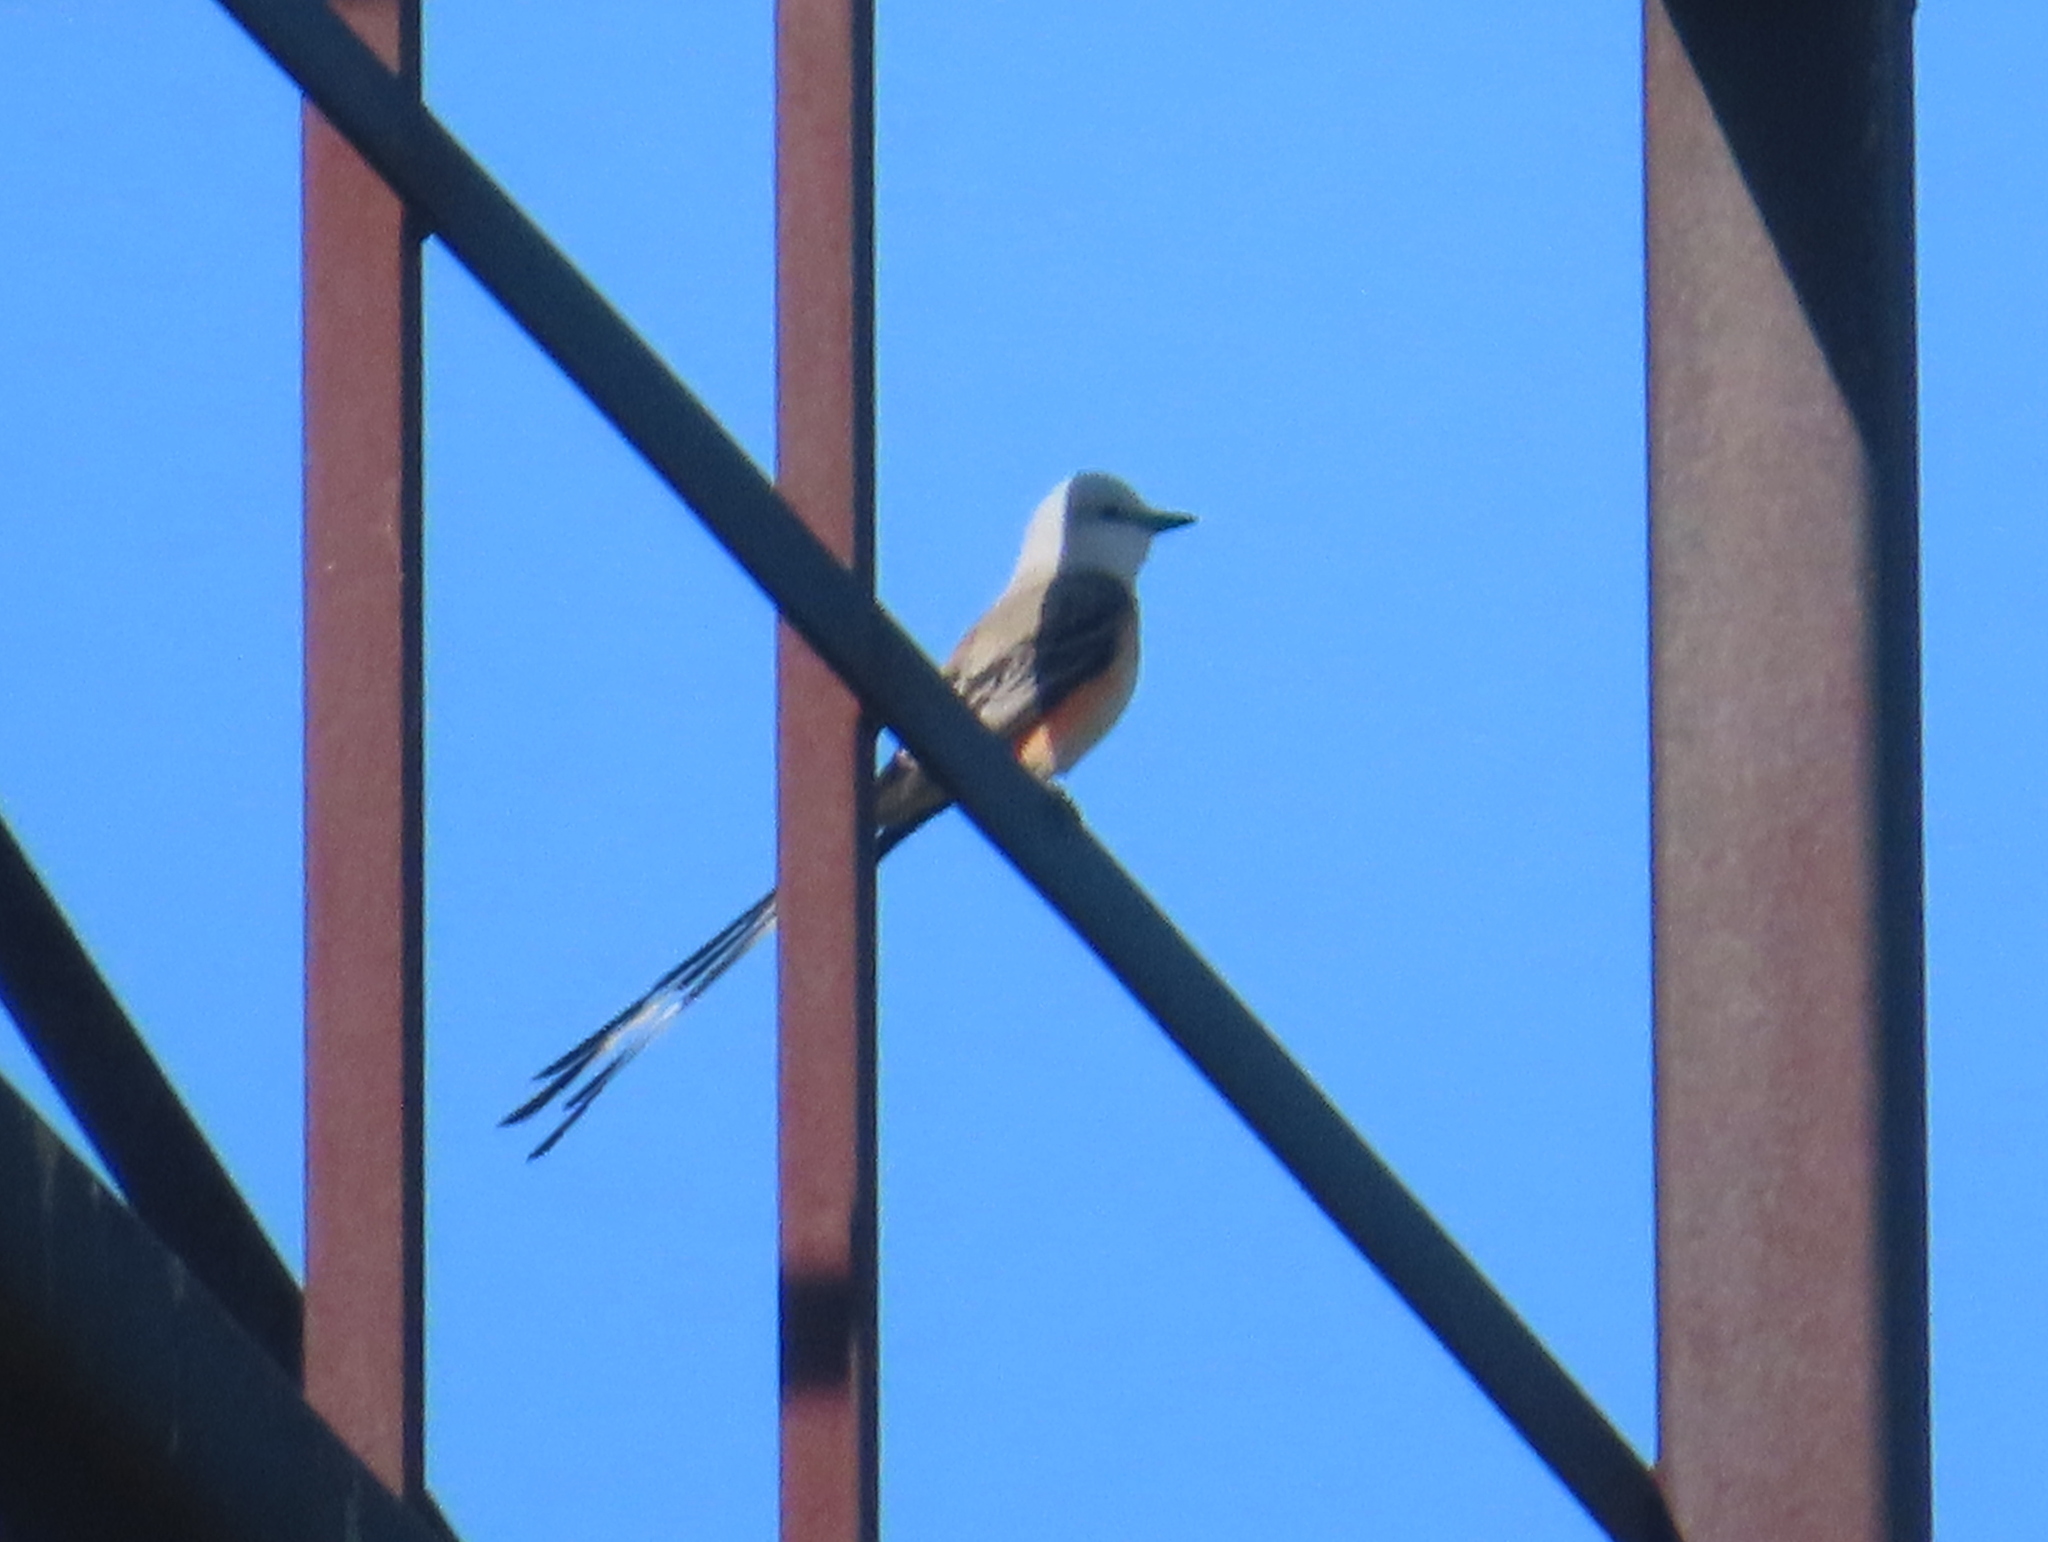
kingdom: Animalia
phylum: Chordata
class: Aves
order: Passeriformes
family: Tyrannidae
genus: Tyrannus
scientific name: Tyrannus forficatus
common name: Scissor-tailed flycatcher
